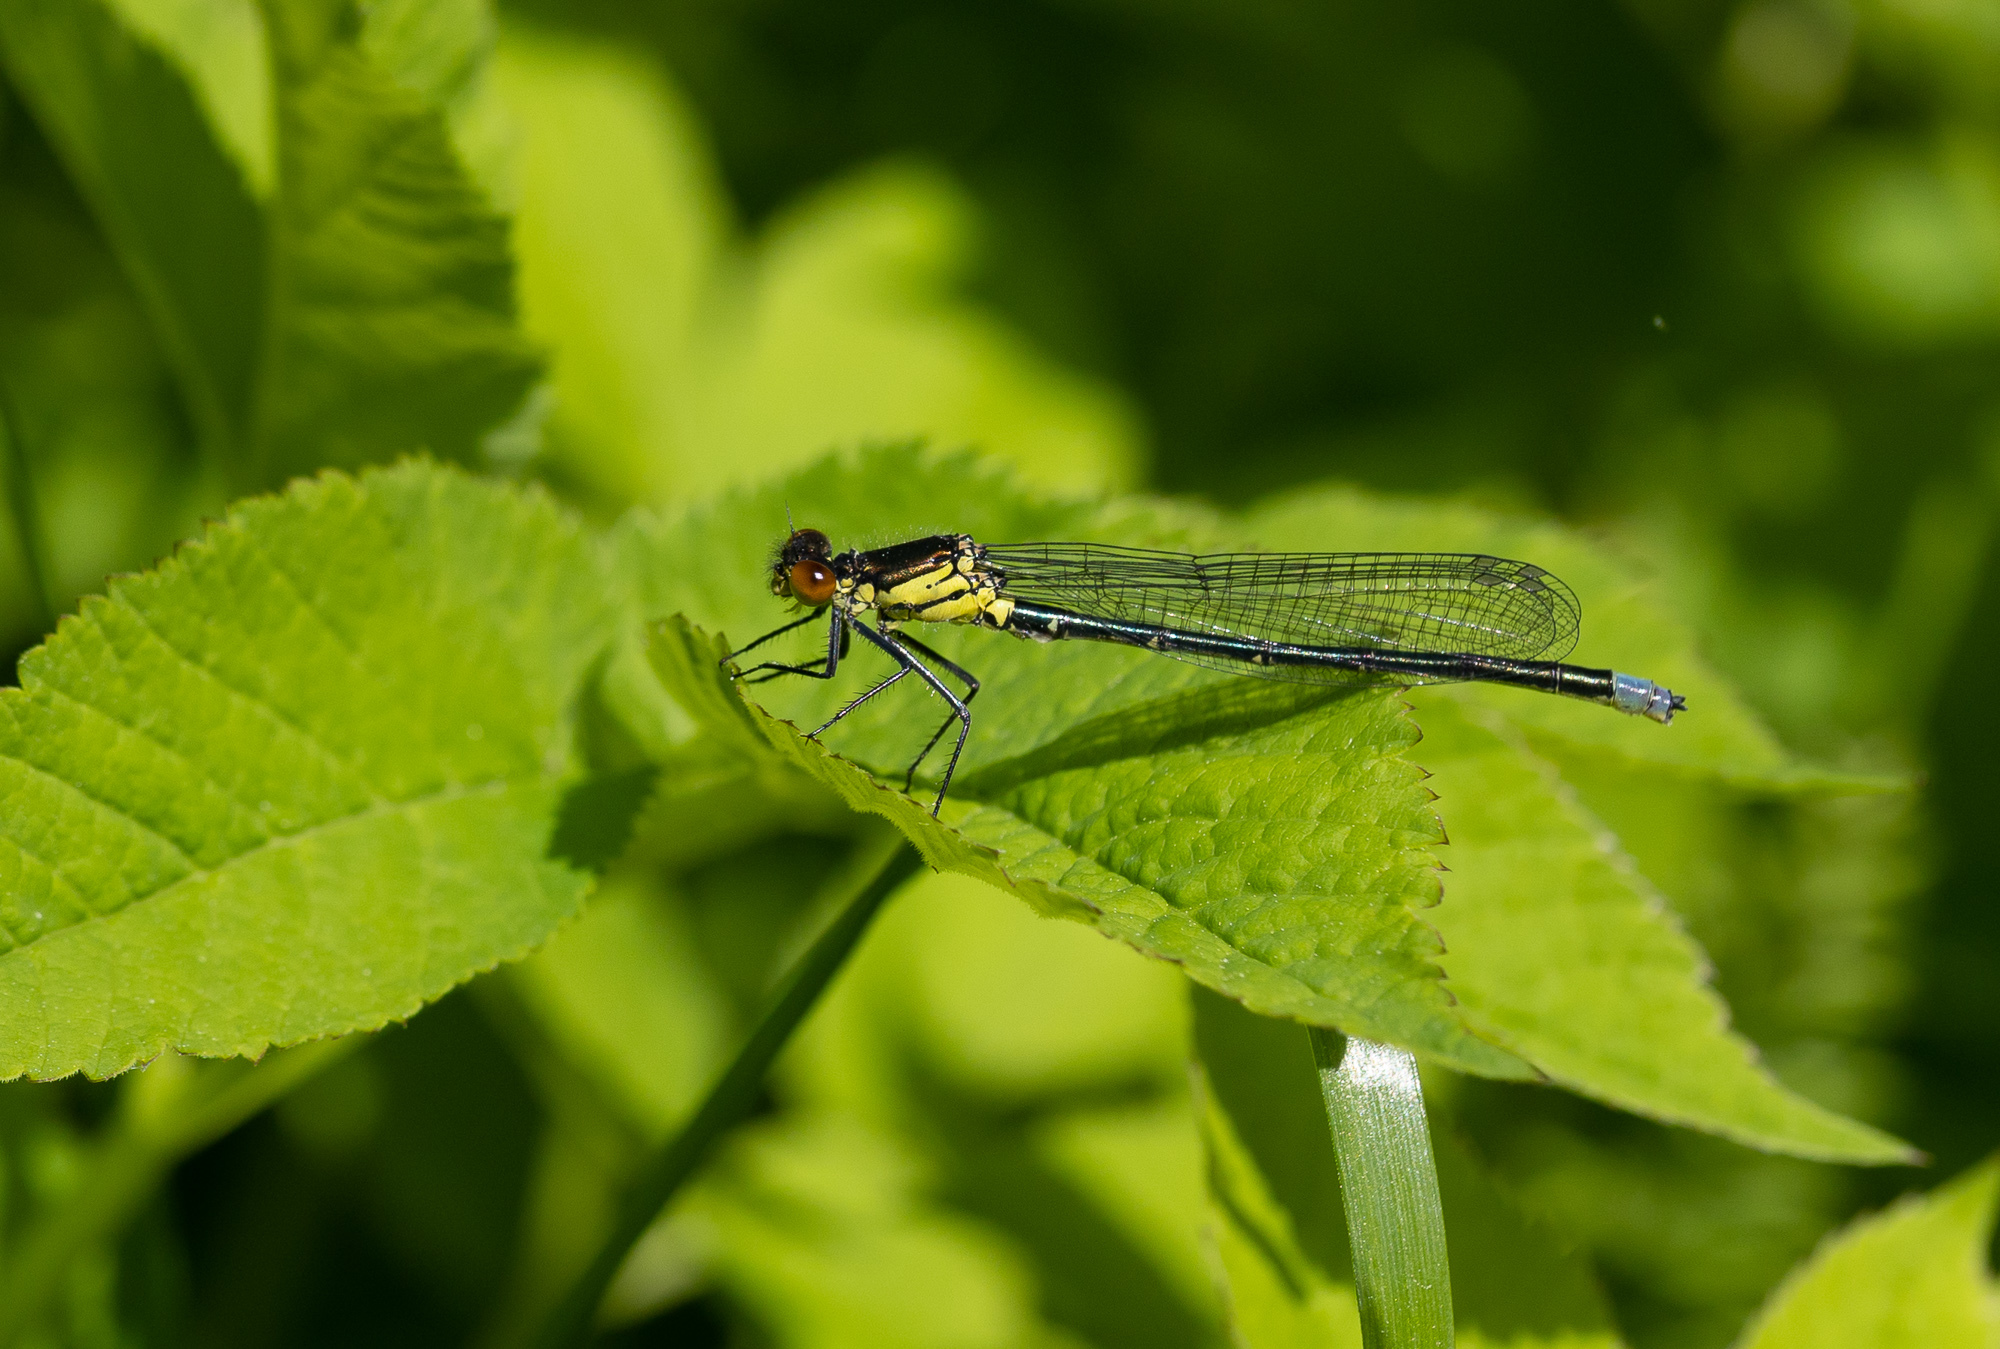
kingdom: Animalia
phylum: Arthropoda
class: Insecta
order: Odonata
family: Coenagrionidae
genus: Erythromma
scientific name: Erythromma najas
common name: Red-eyed damselfly
